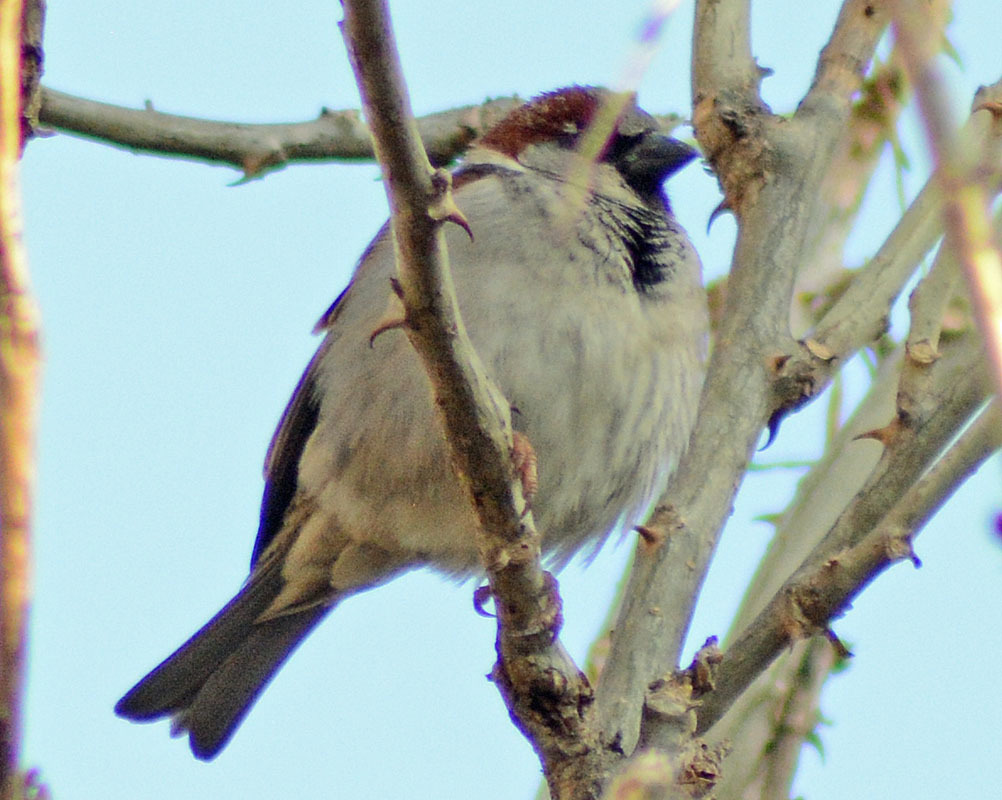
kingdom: Animalia
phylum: Chordata
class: Aves
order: Passeriformes
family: Passeridae
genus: Passer
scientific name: Passer domesticus
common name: House sparrow
